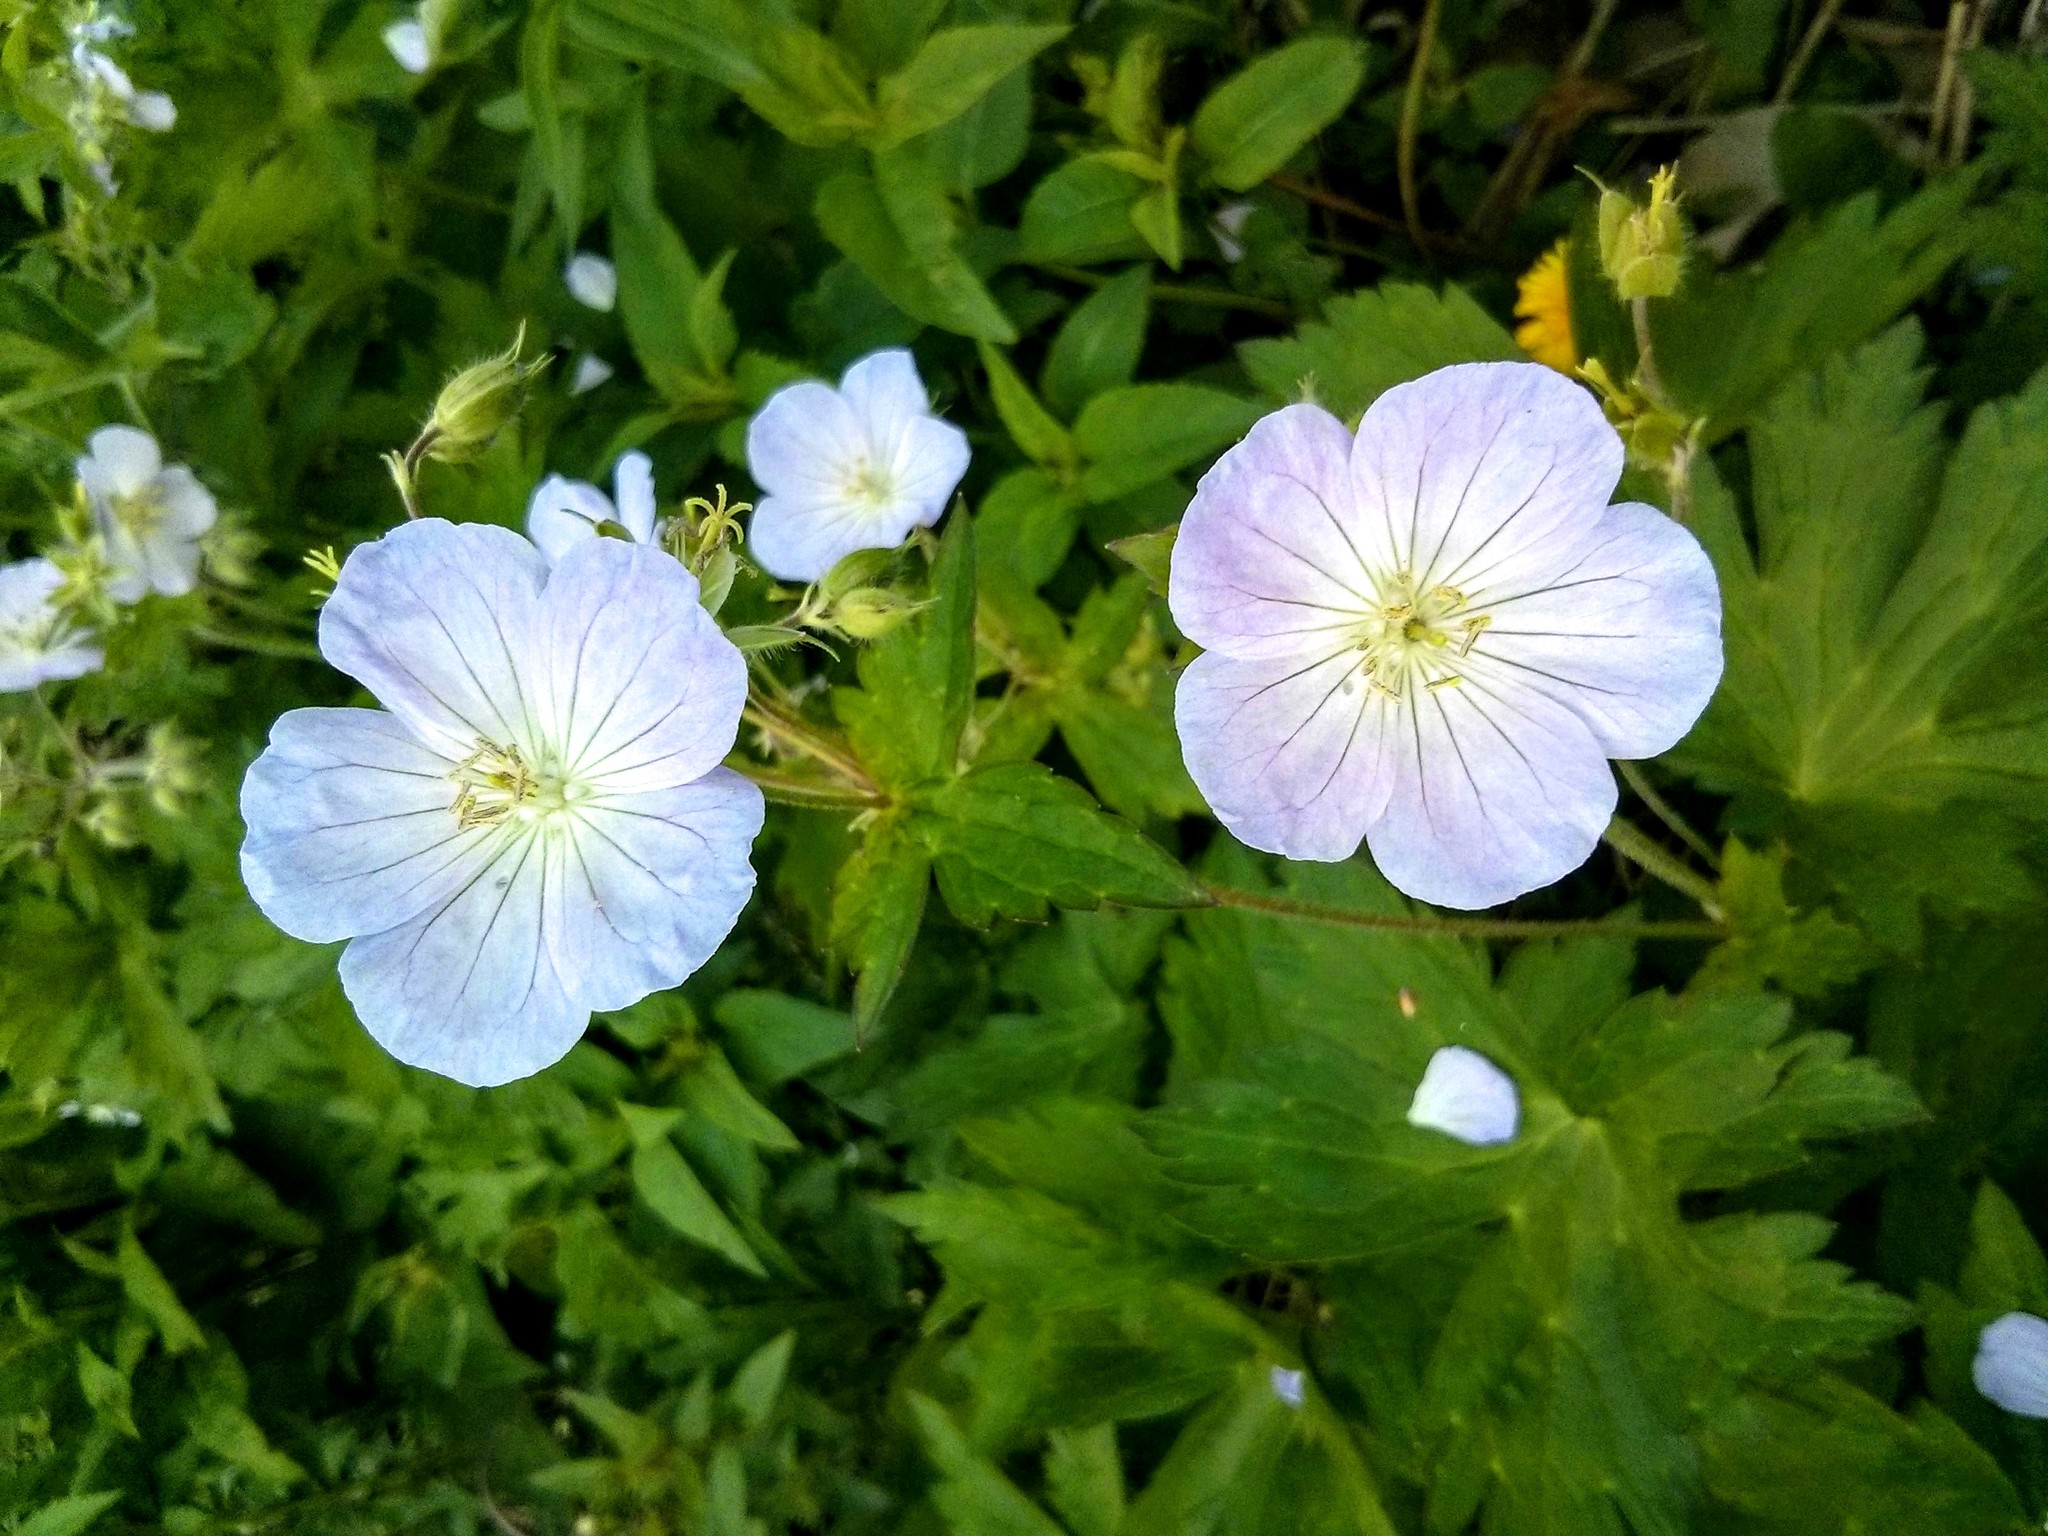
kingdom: Plantae
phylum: Tracheophyta
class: Magnoliopsida
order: Geraniales
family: Geraniaceae
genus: Geranium
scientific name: Geranium maculatum
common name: Spotted geranium
